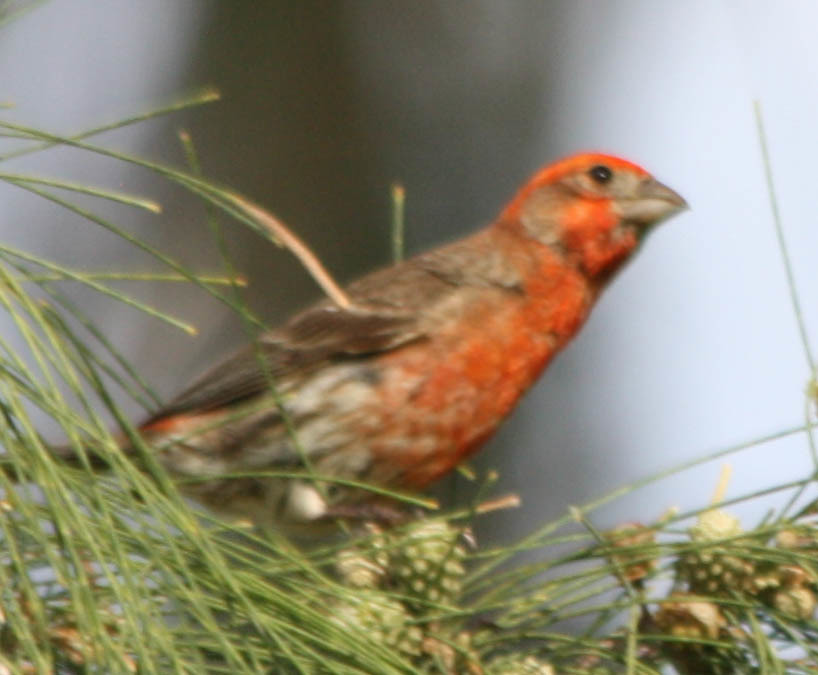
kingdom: Animalia
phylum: Chordata
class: Aves
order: Passeriformes
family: Fringillidae
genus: Haemorhous
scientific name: Haemorhous mexicanus
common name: House finch
